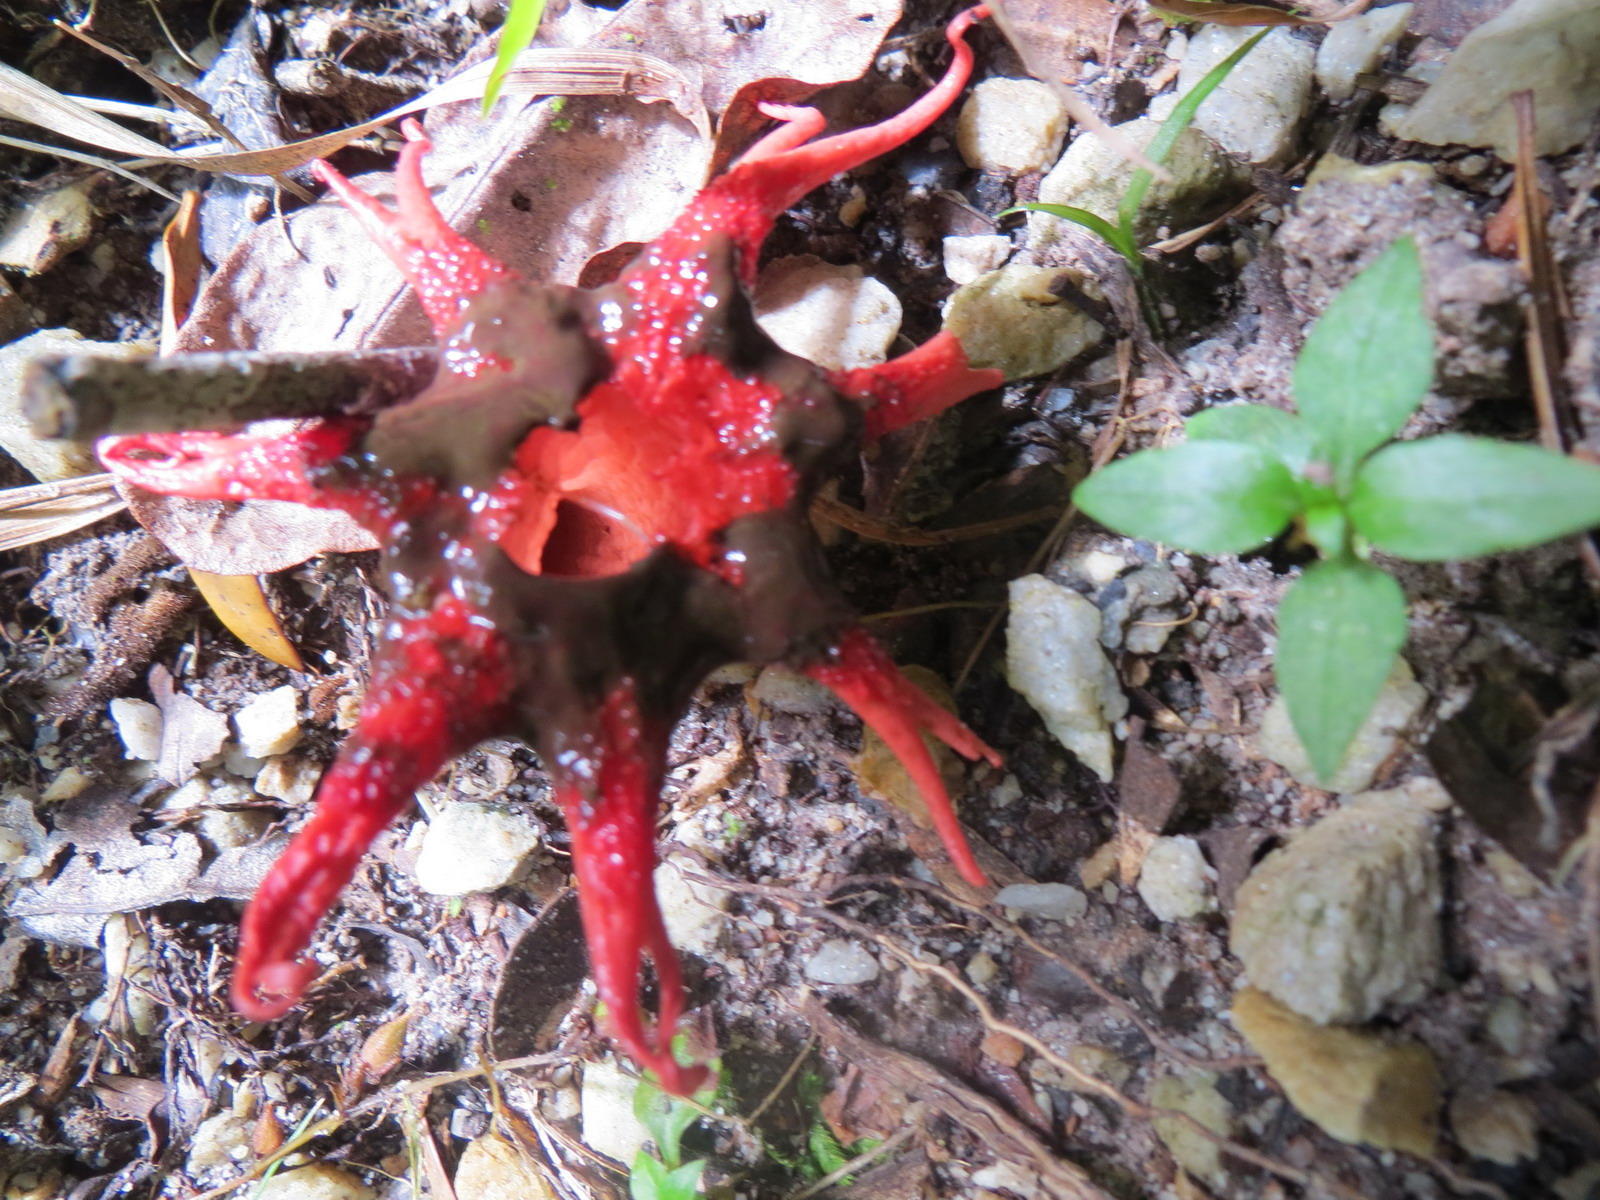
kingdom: Fungi
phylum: Basidiomycota
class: Agaricomycetes
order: Phallales
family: Phallaceae
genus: Aseroe
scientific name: Aseroe rubra
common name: Starfish fungus
